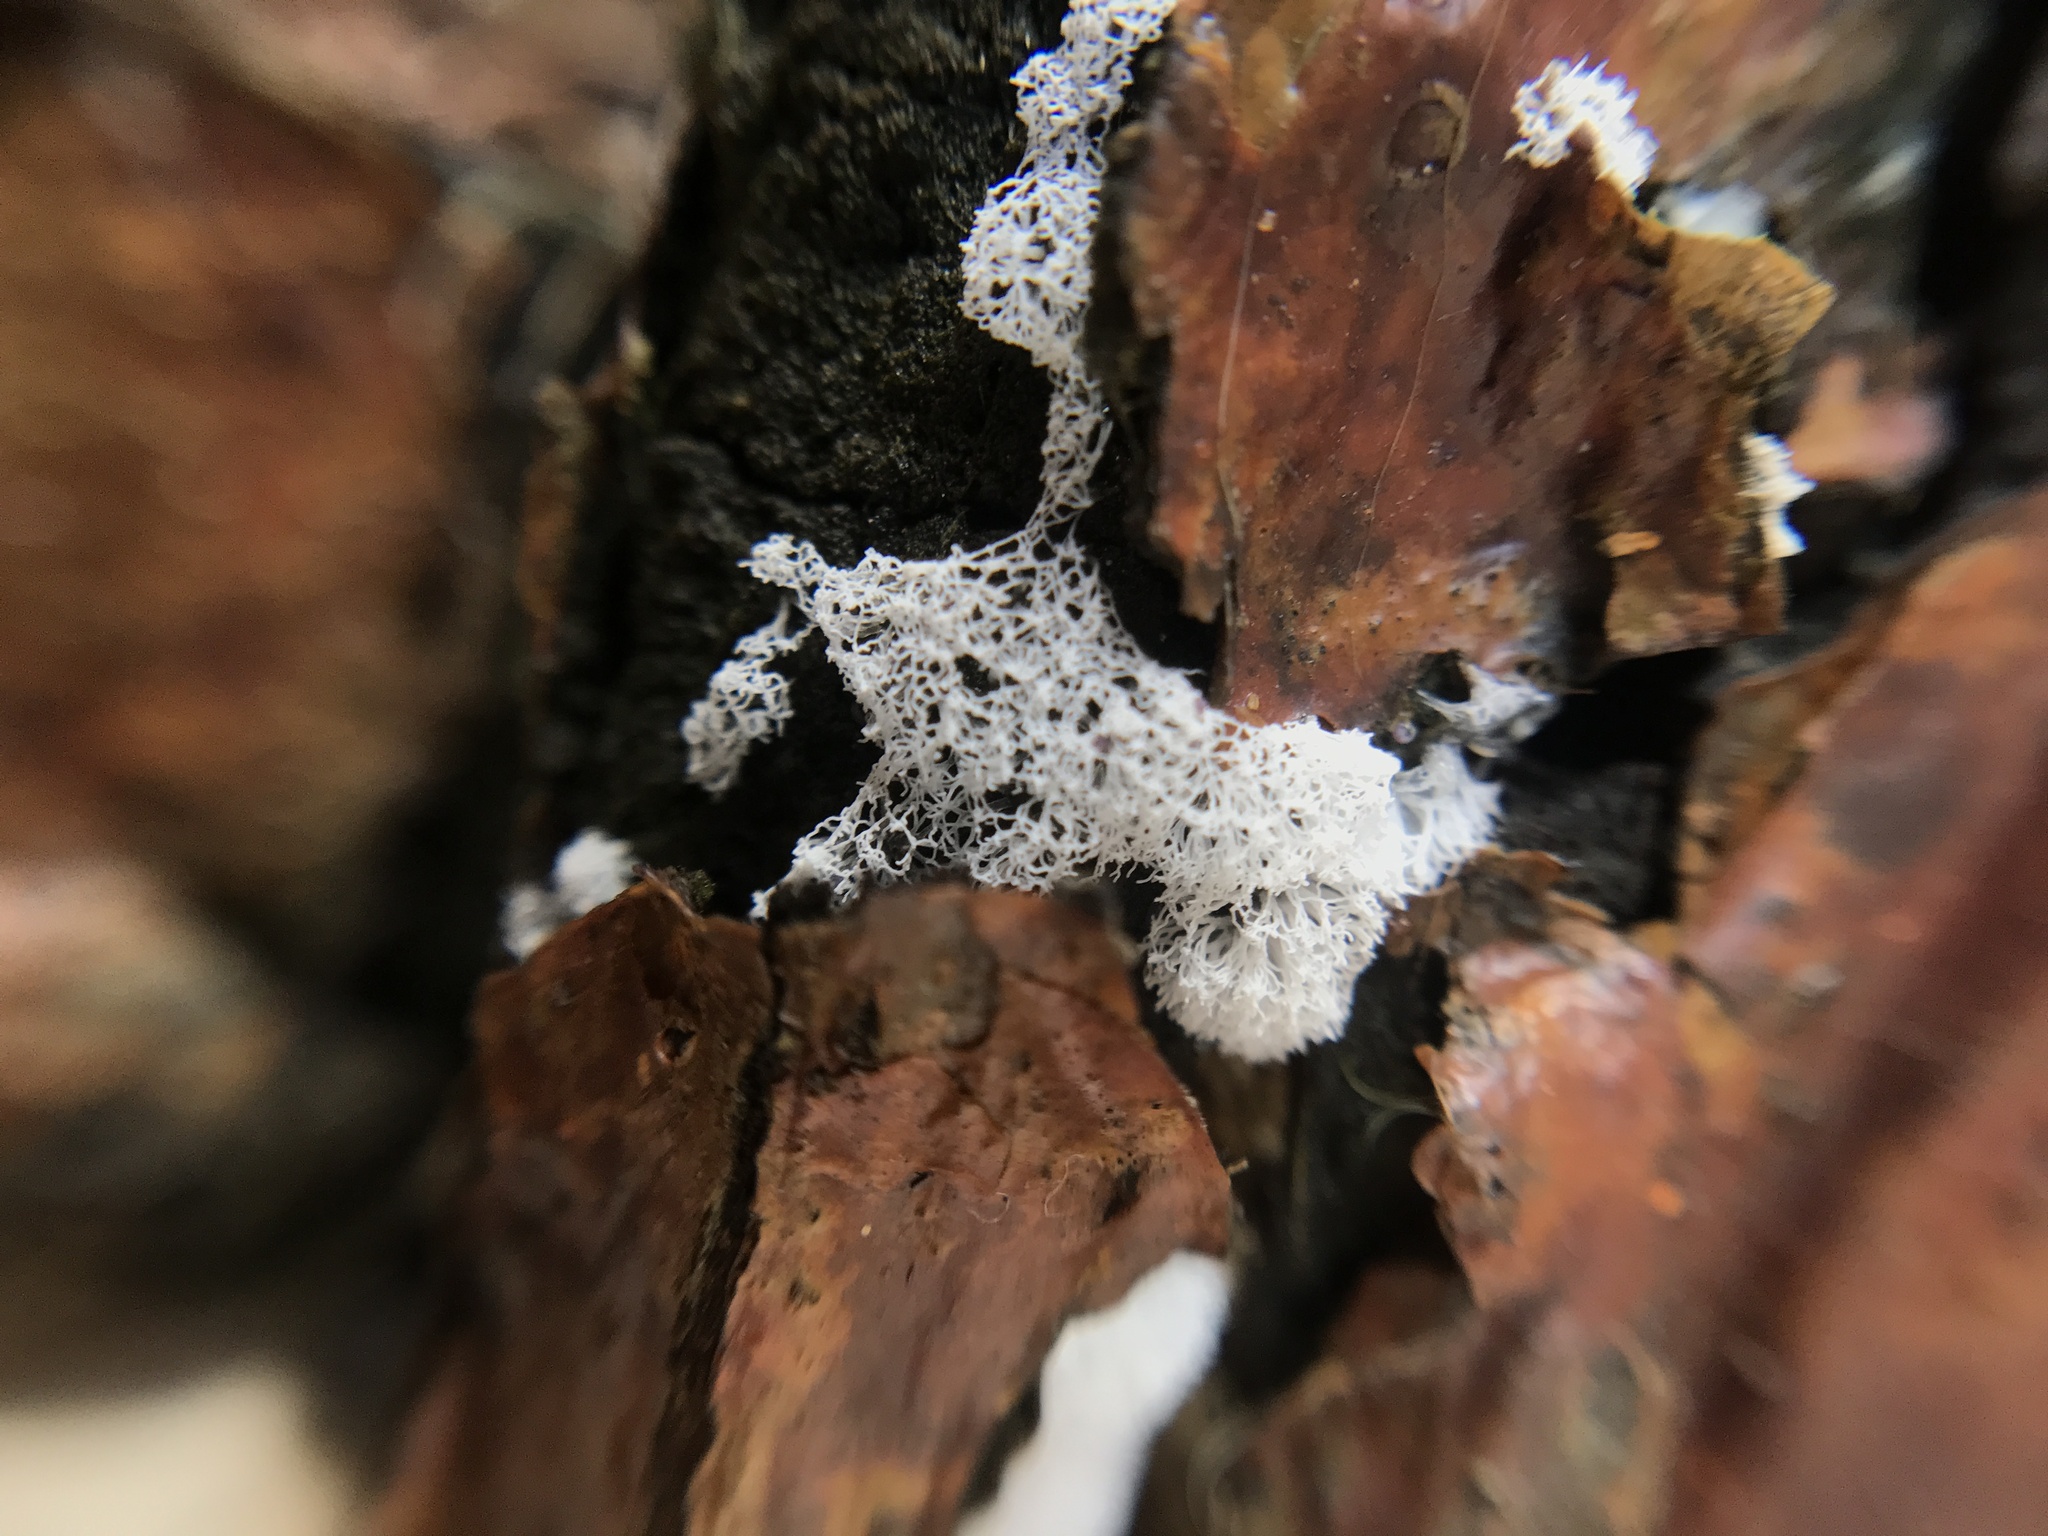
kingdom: Protozoa
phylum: Mycetozoa
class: Protosteliomycetes
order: Ceratiomyxales
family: Ceratiomyxaceae
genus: Ceratiomyxa
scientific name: Ceratiomyxa fruticulosa
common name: Honeycomb coral slime mold
